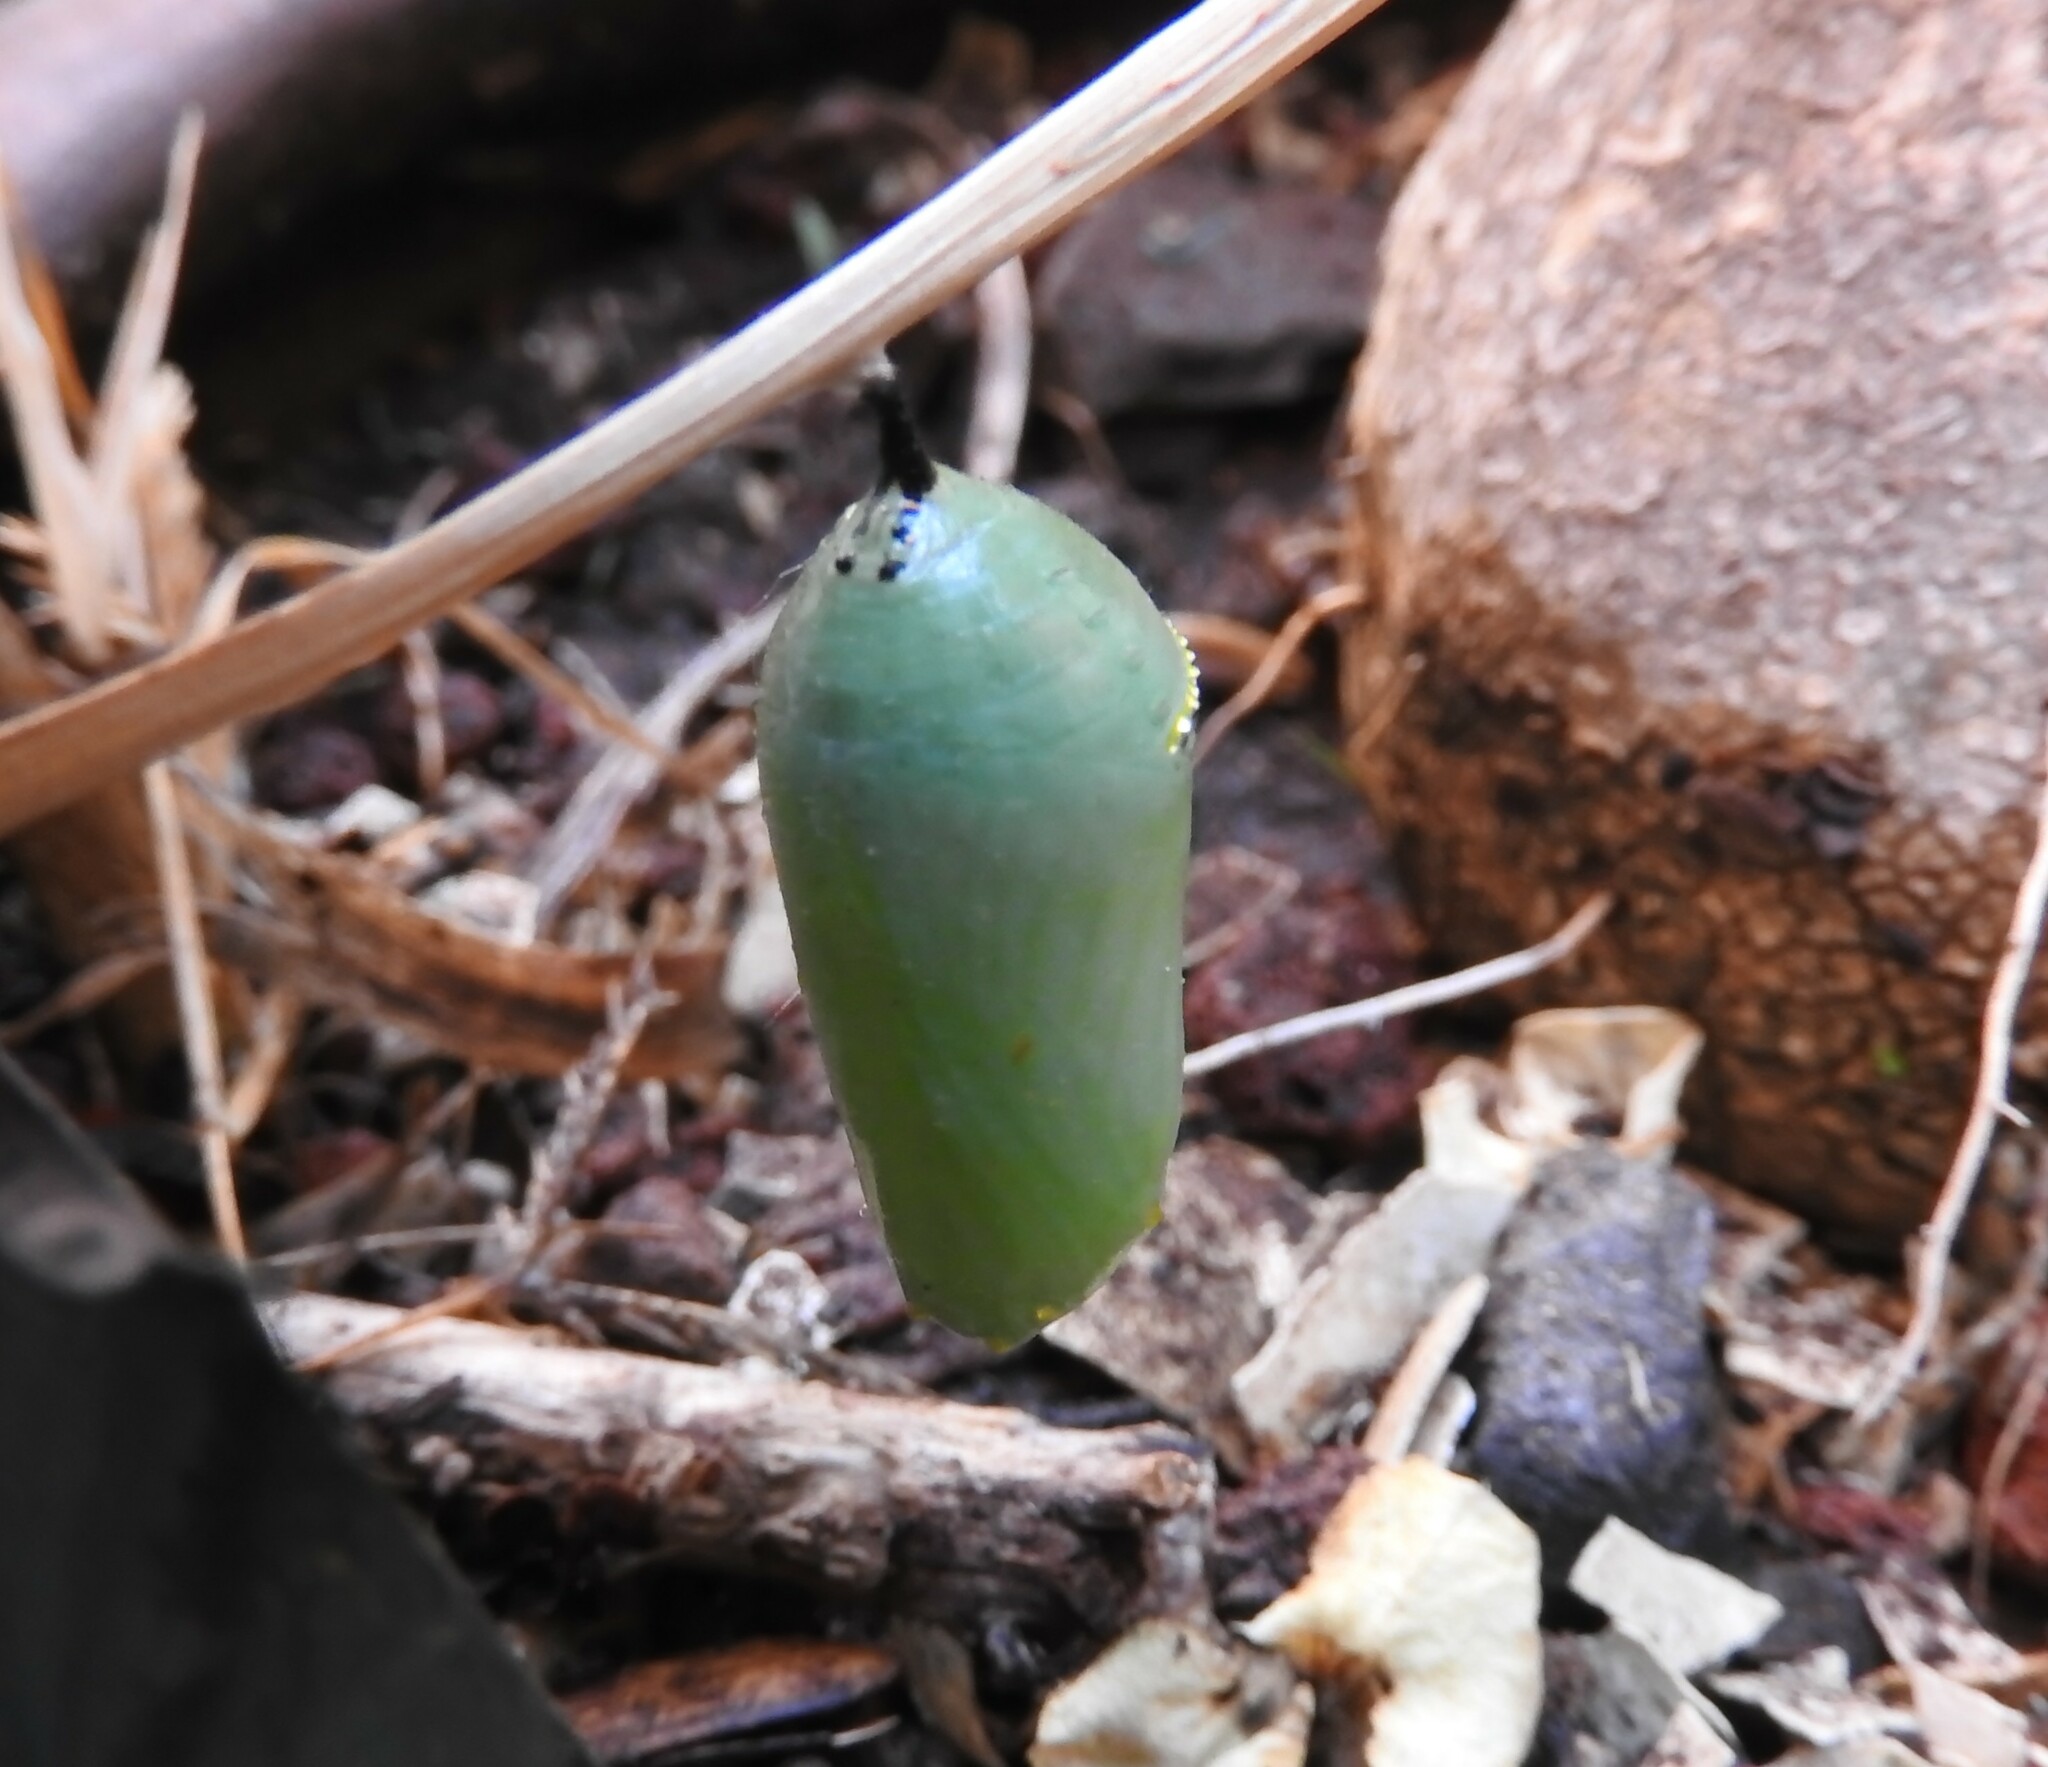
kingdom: Animalia
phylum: Arthropoda
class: Insecta
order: Lepidoptera
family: Nymphalidae
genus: Danaus
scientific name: Danaus plexippus
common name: Monarch
